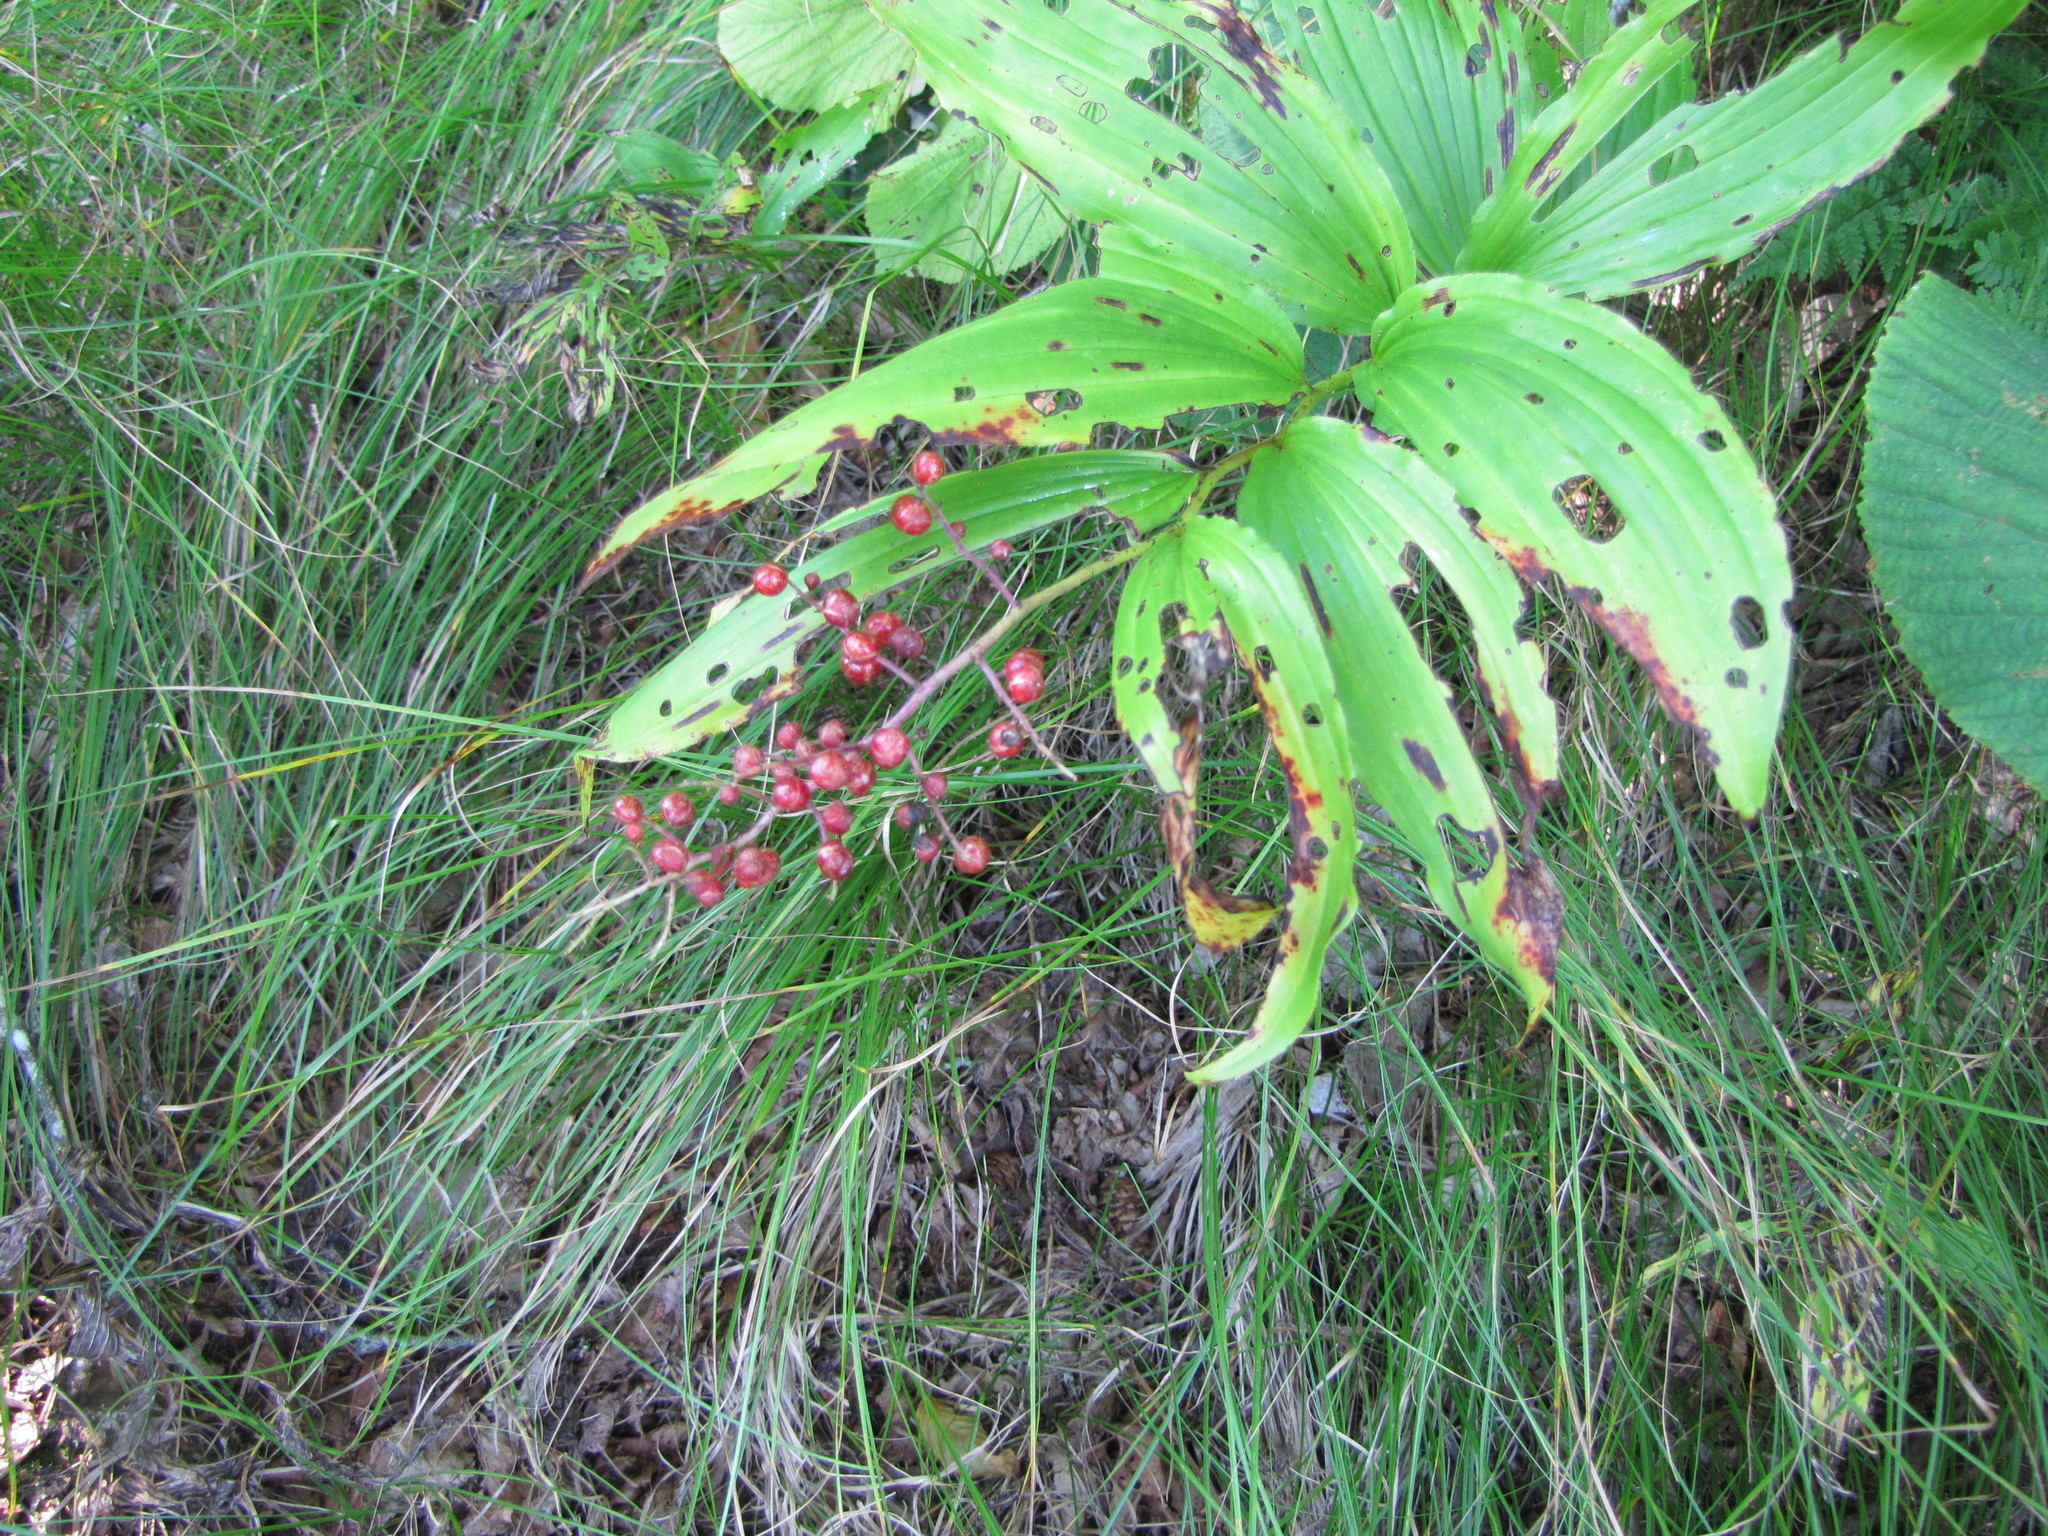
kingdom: Plantae
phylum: Tracheophyta
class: Liliopsida
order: Asparagales
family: Asparagaceae
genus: Maianthemum
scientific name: Maianthemum racemosum
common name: False spikenard
